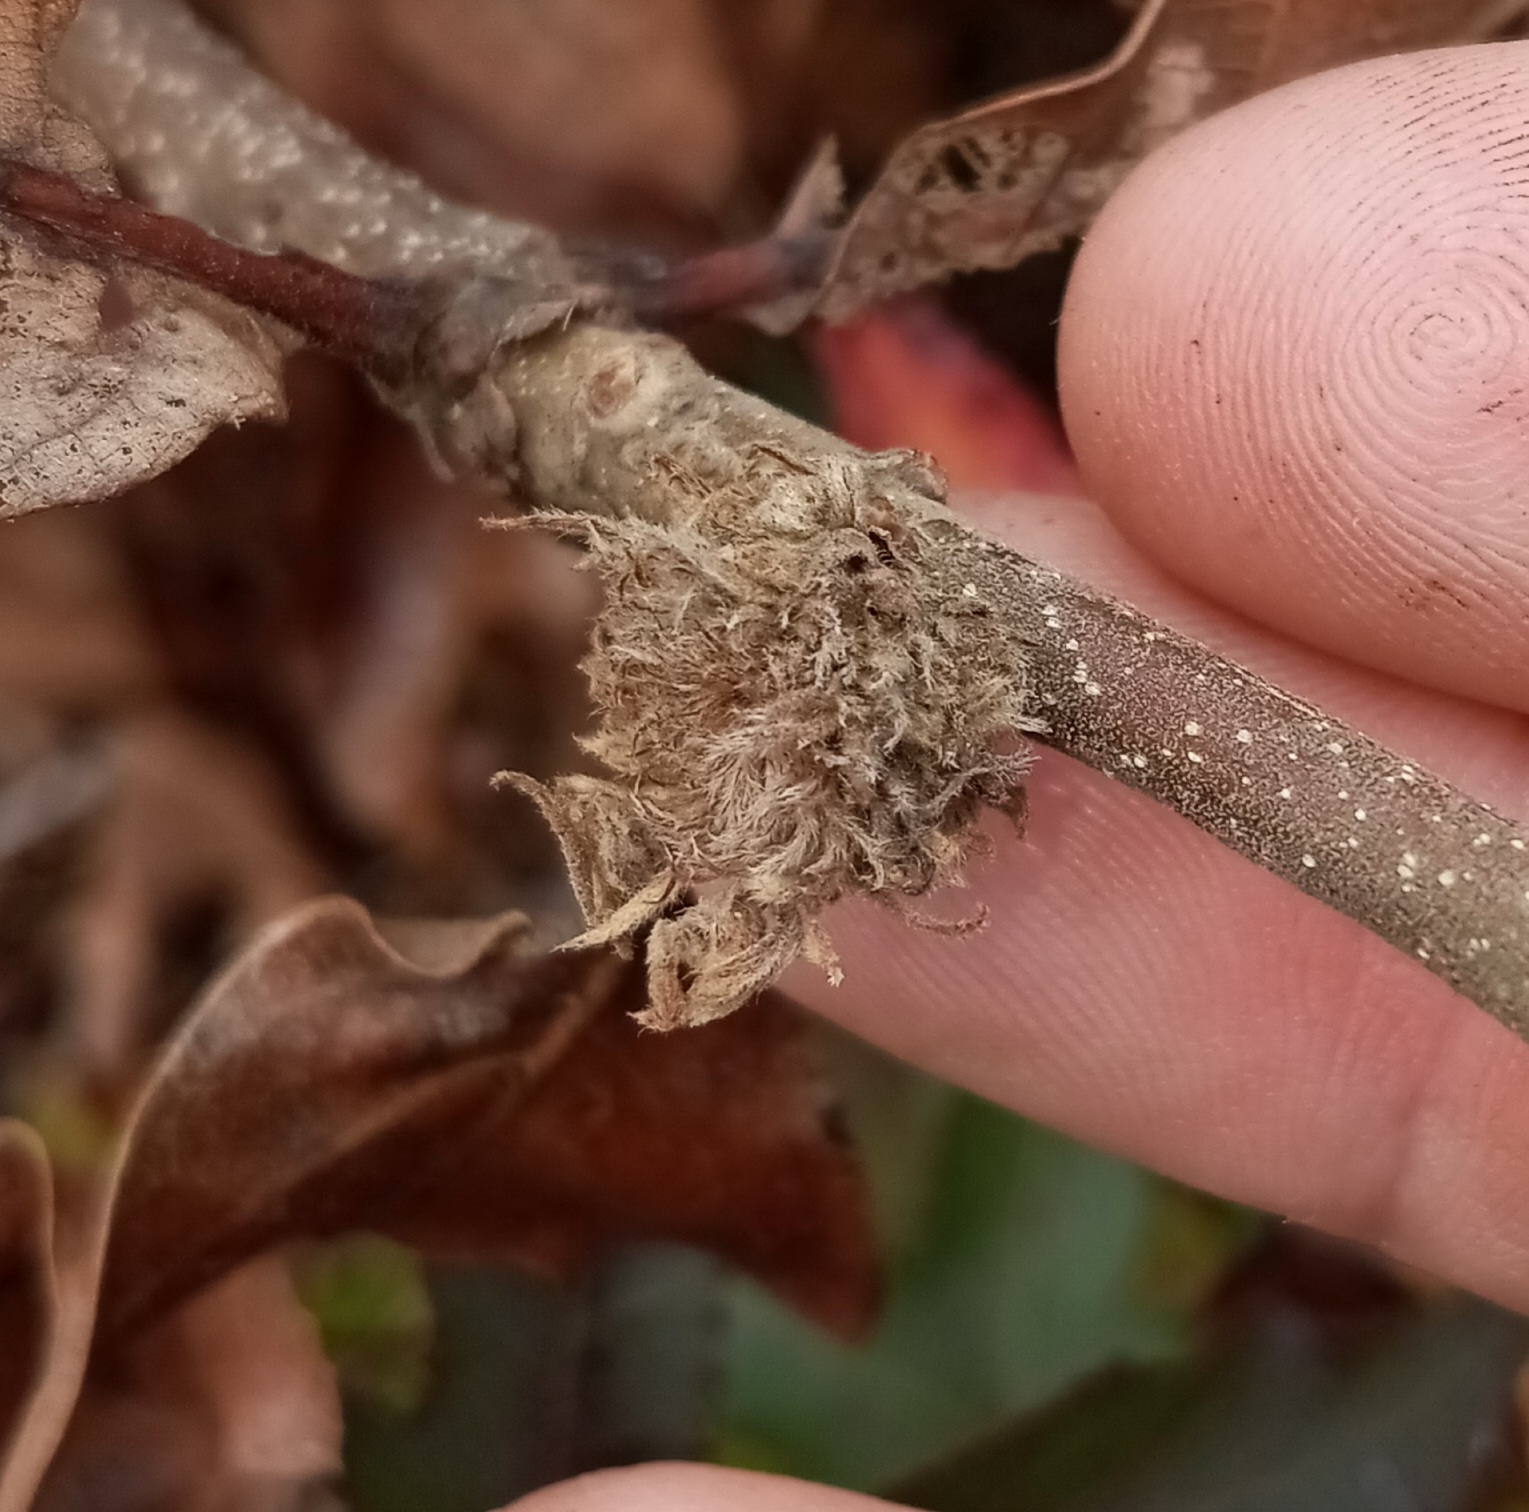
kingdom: Animalia
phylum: Arthropoda
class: Insecta
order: Hymenoptera
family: Cynipidae
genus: Andricus
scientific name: Andricus
